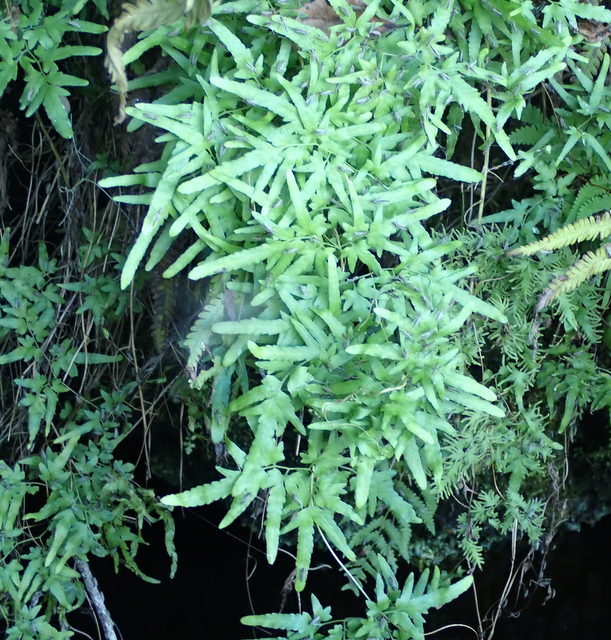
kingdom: Plantae
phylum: Tracheophyta
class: Polypodiopsida
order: Schizaeales
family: Lygodiaceae
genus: Lygodium
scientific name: Lygodium japonicum
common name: Japanese climbing fern
